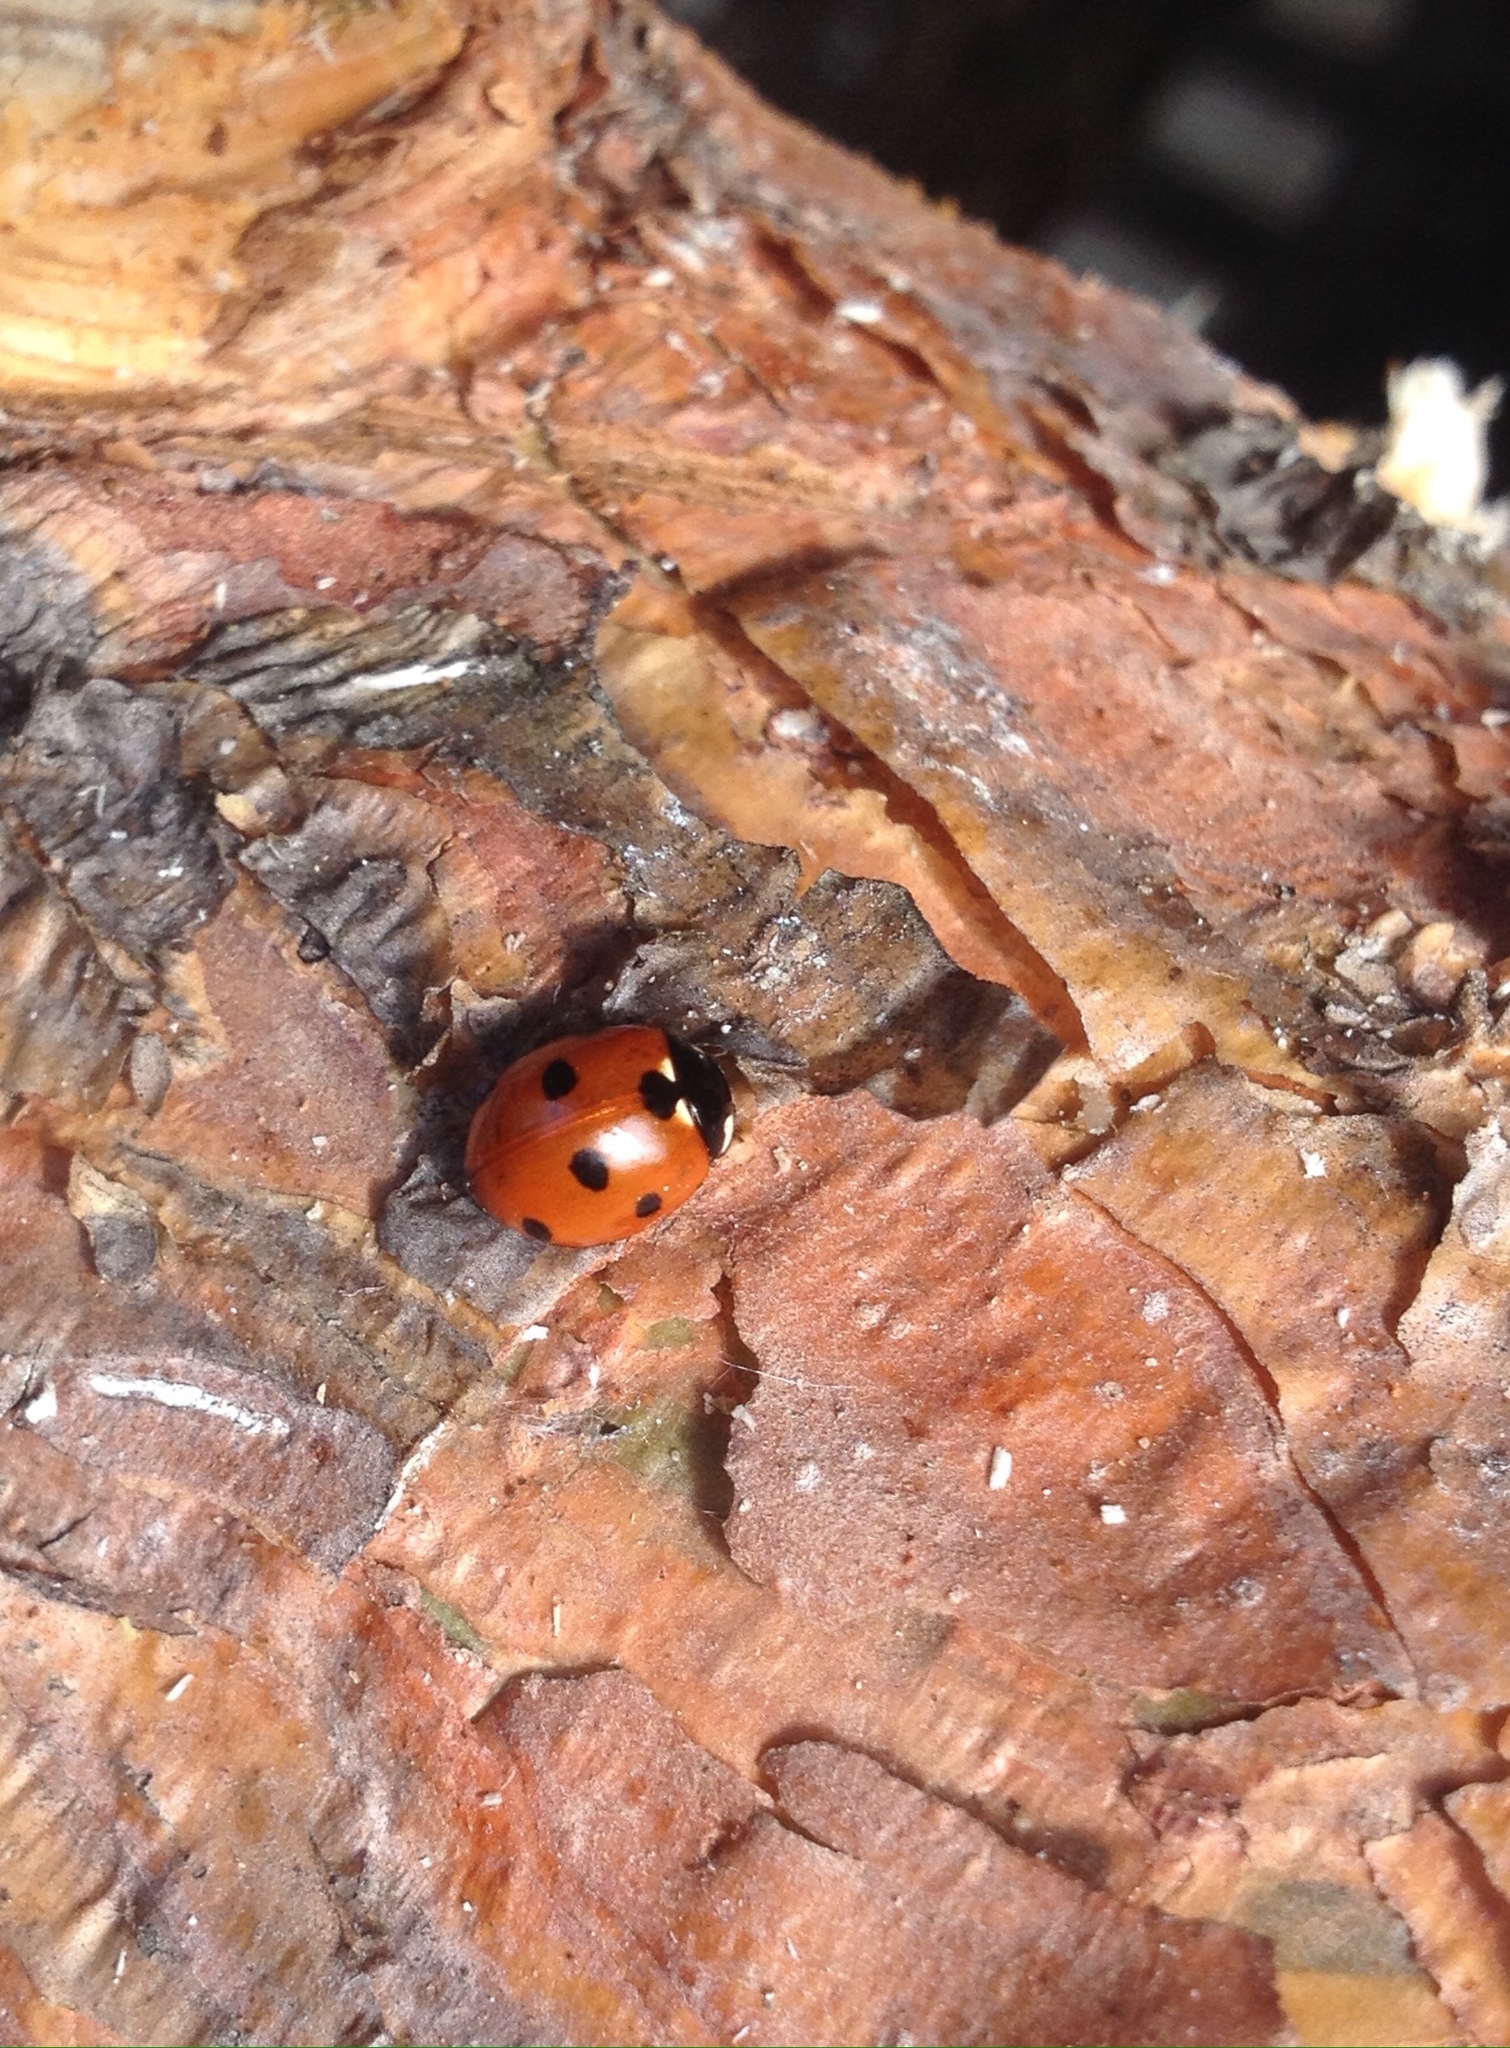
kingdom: Animalia
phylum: Arthropoda
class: Insecta
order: Coleoptera
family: Coccinellidae
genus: Coccinella
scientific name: Coccinella septempunctata
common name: Sevenspotted lady beetle
